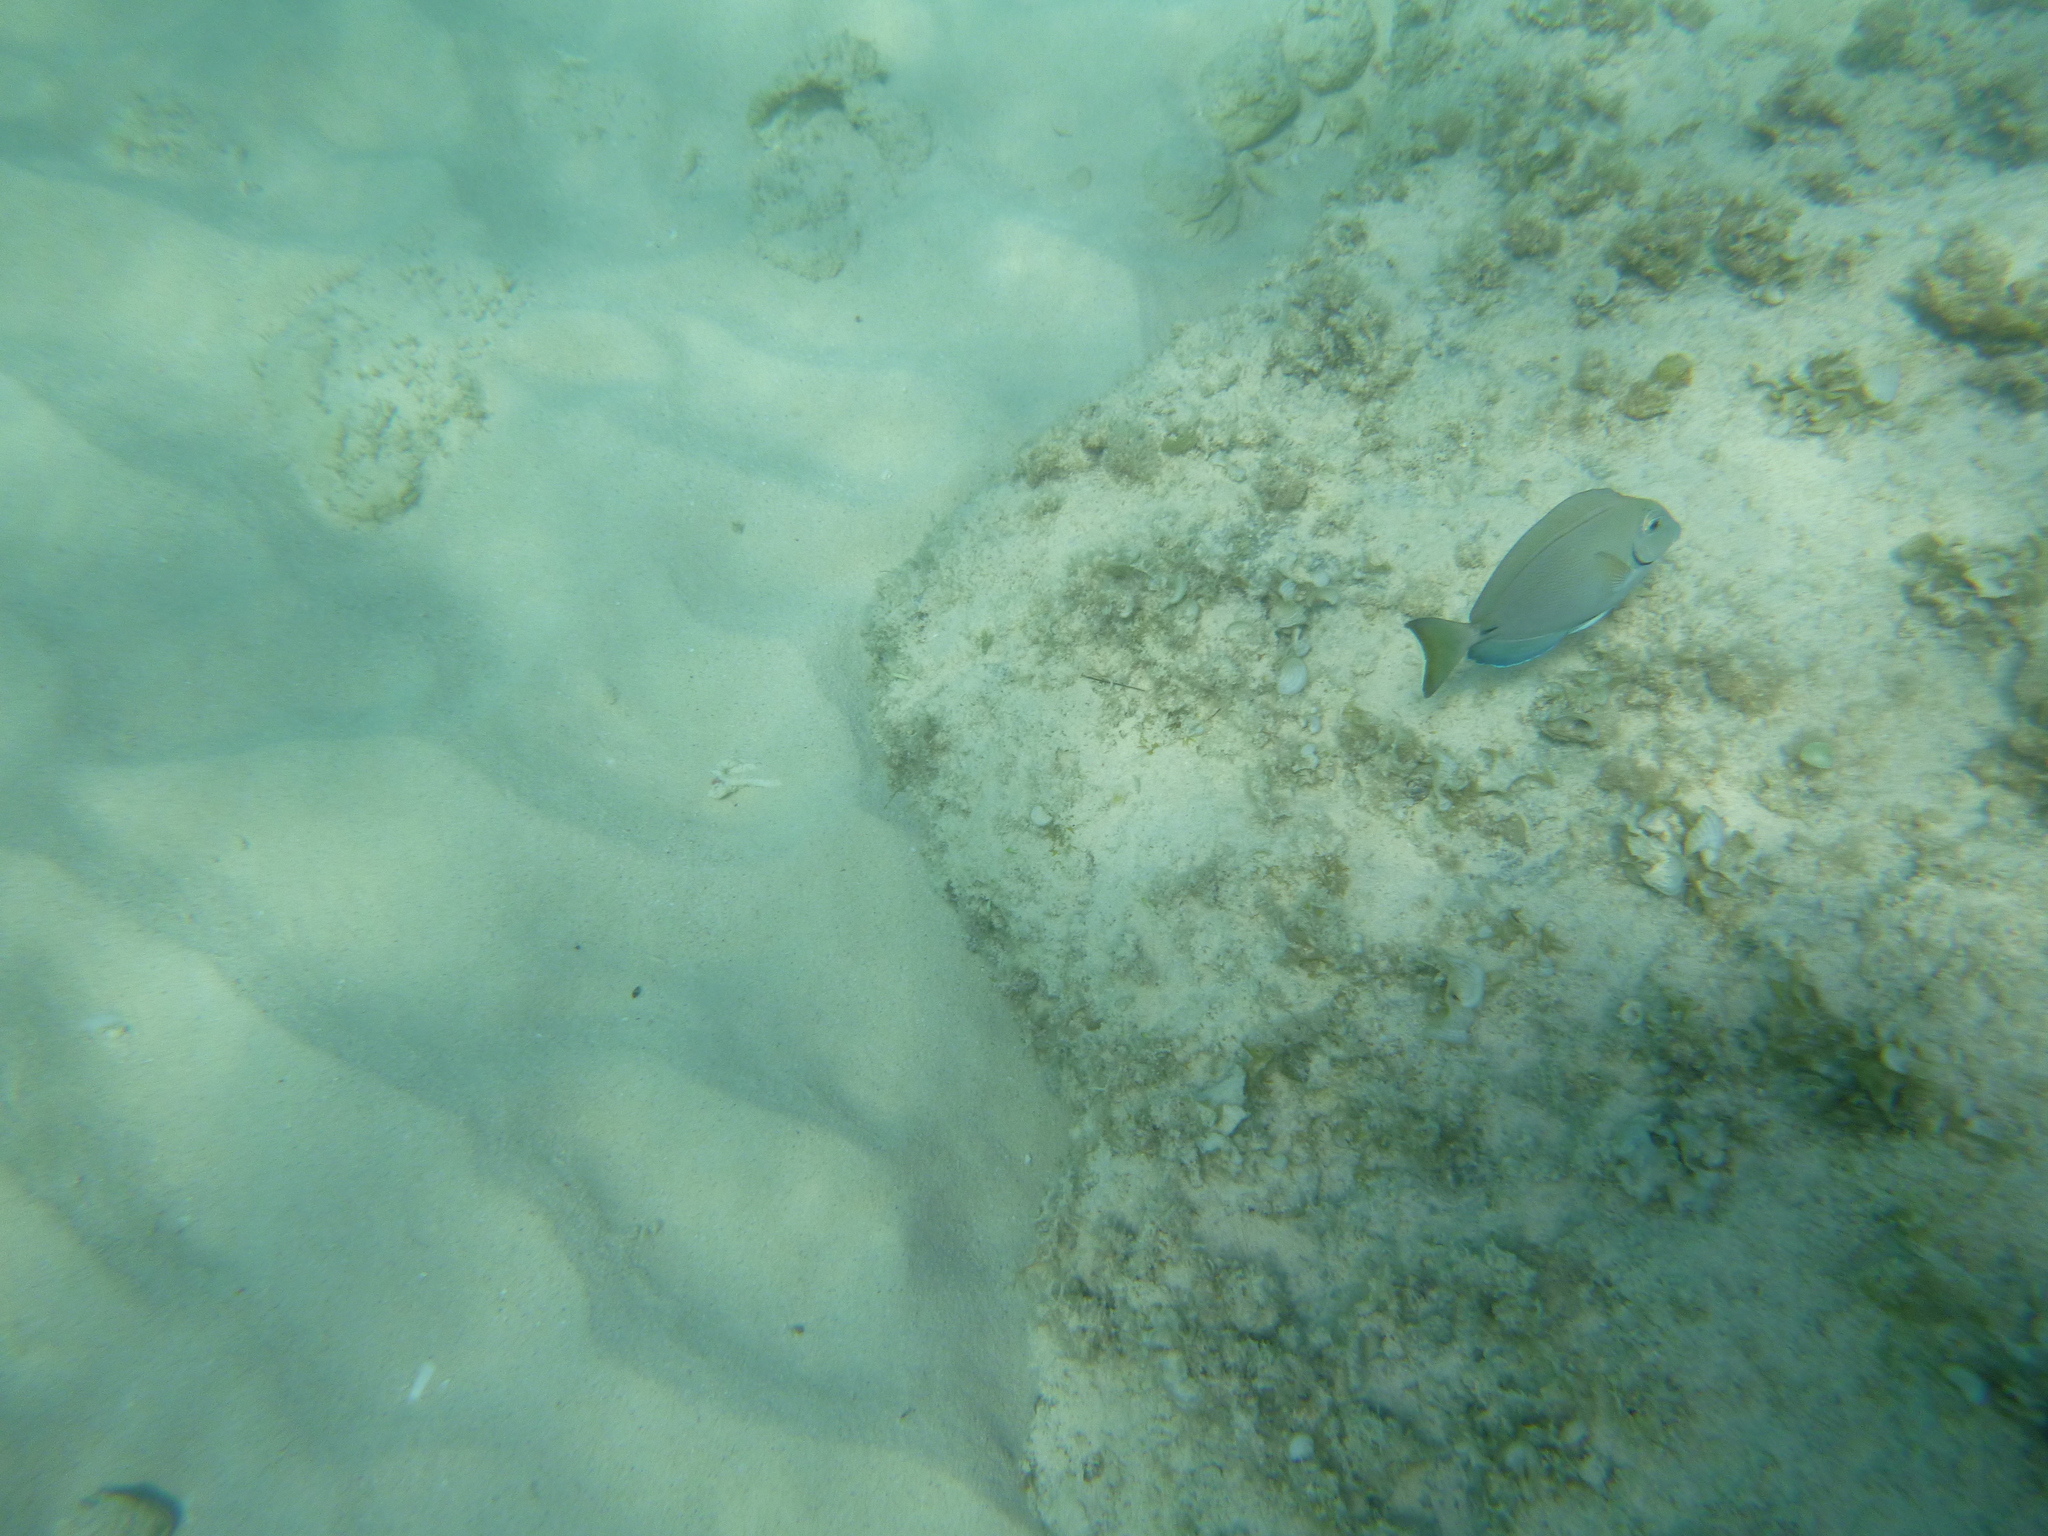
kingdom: Animalia
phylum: Chordata
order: Perciformes
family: Acanthuridae
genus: Acanthurus
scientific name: Acanthurus bahianus
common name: Ocean surgeon
